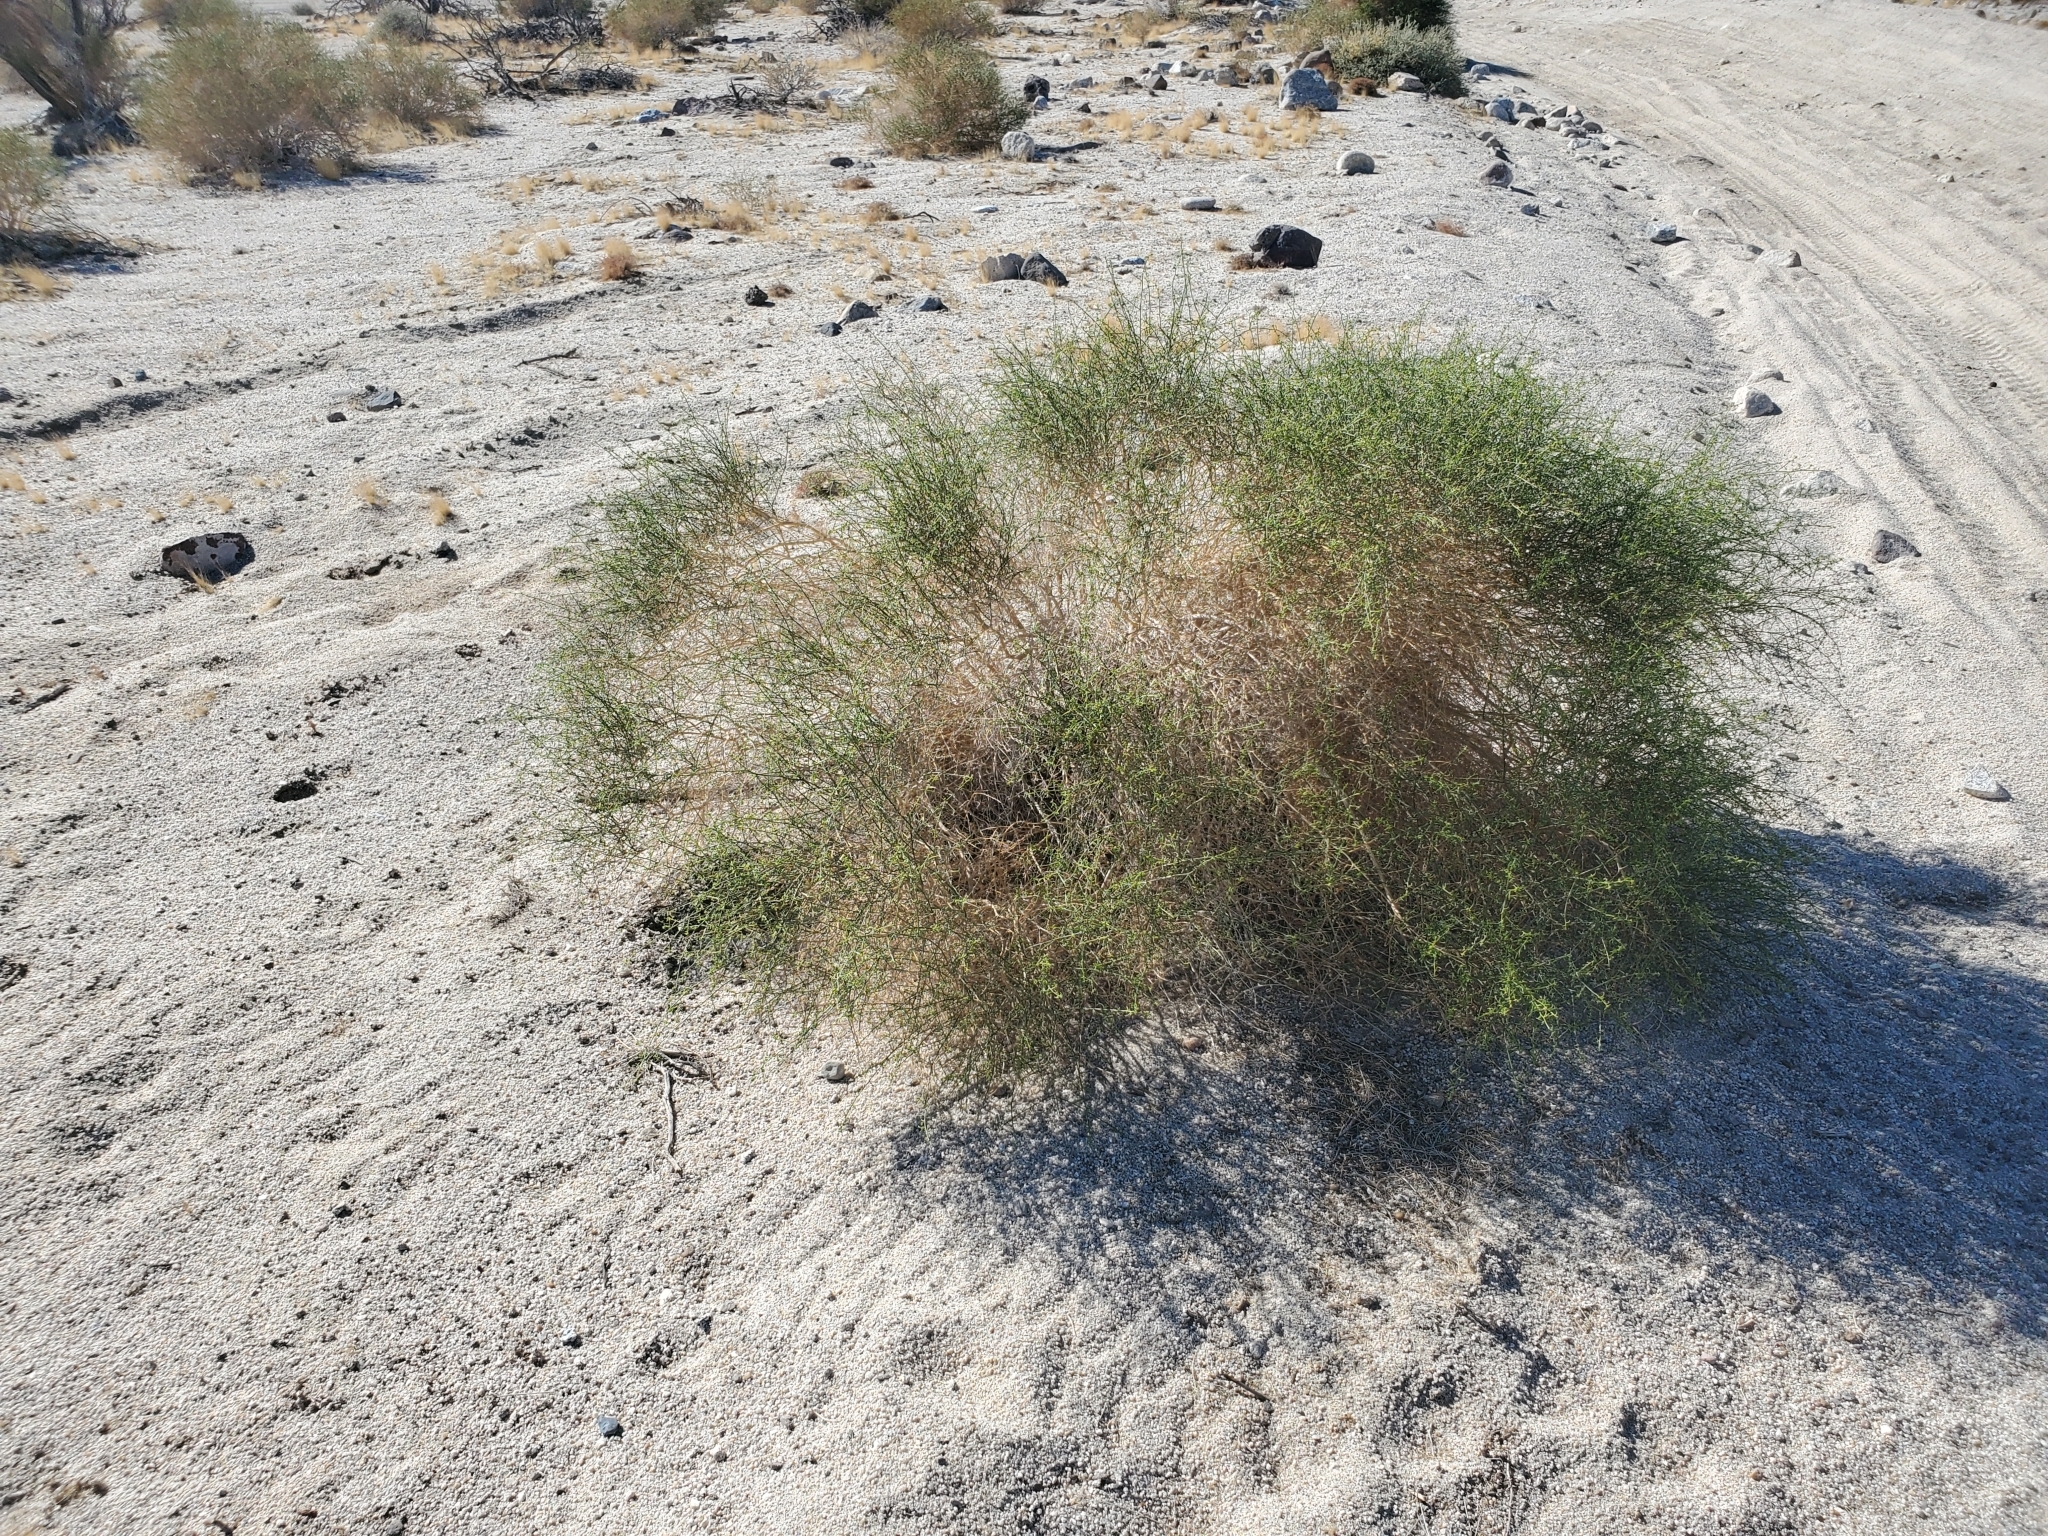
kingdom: Plantae
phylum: Tracheophyta
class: Magnoliopsida
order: Asterales
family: Asteraceae
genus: Ambrosia
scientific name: Ambrosia salsola
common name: Burrobrush
